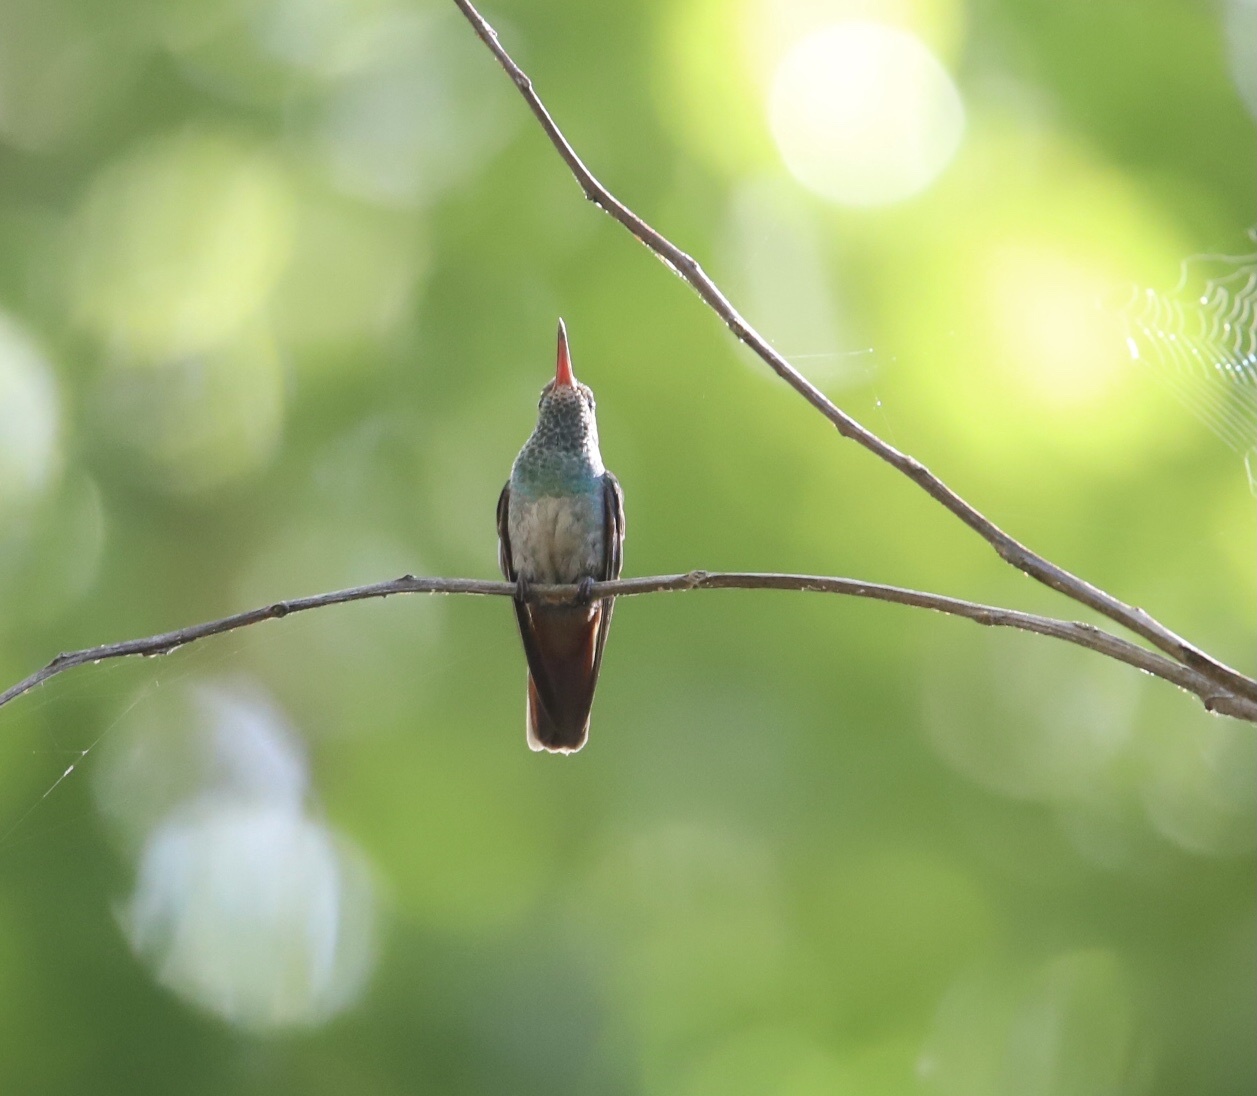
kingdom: Animalia
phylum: Chordata
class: Aves
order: Apodiformes
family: Trochilidae
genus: Amazilia
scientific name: Amazilia tzacatl
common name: Rufous-tailed hummingbird
